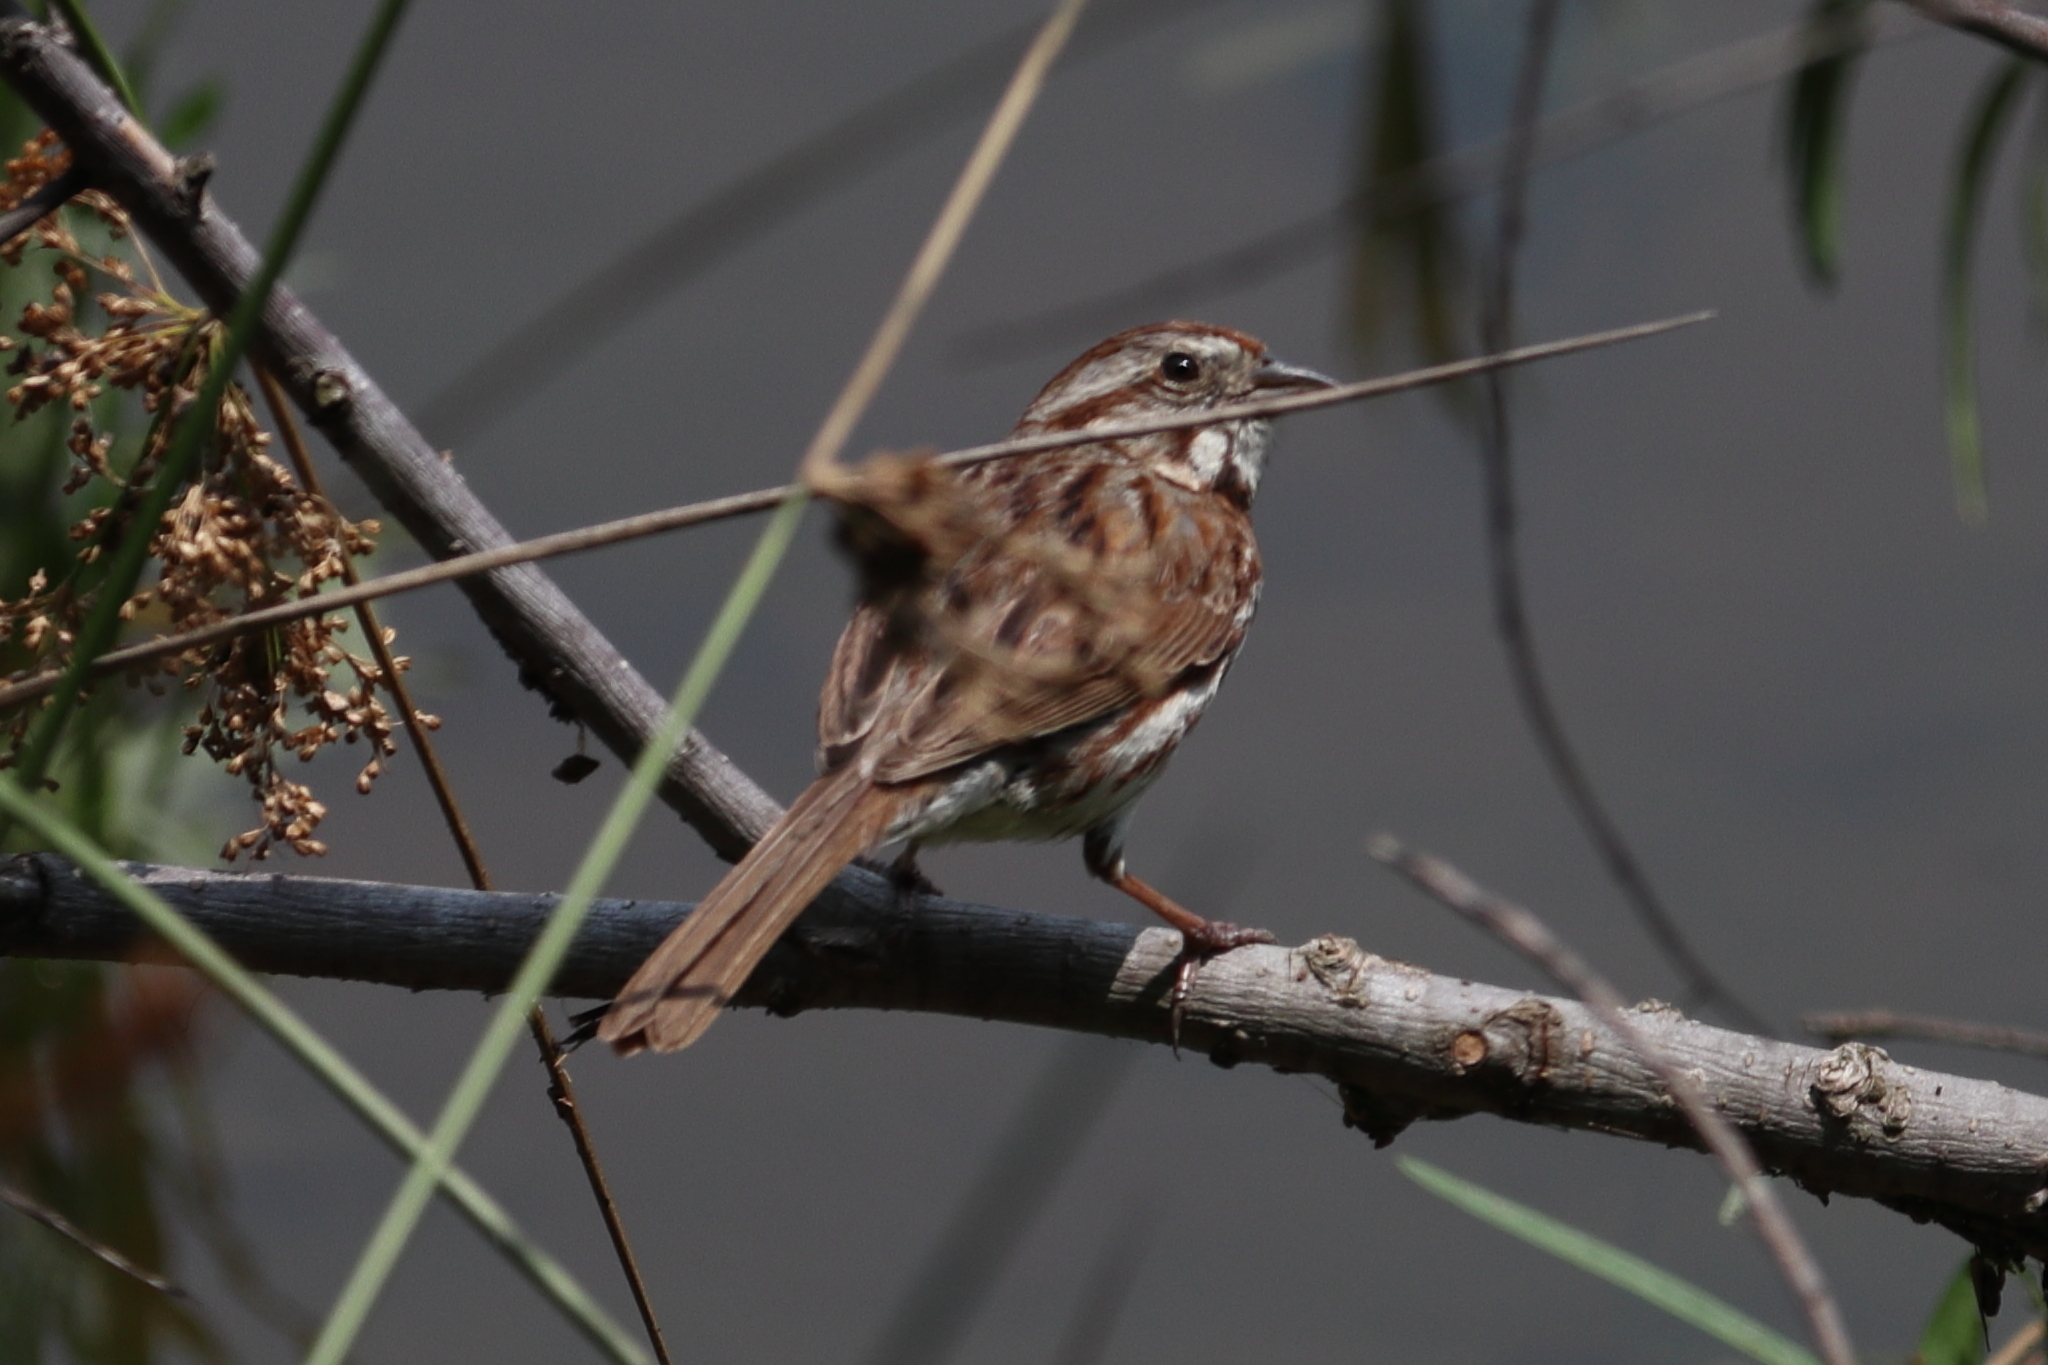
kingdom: Animalia
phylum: Chordata
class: Aves
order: Passeriformes
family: Passerellidae
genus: Melospiza
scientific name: Melospiza melodia
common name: Song sparrow
